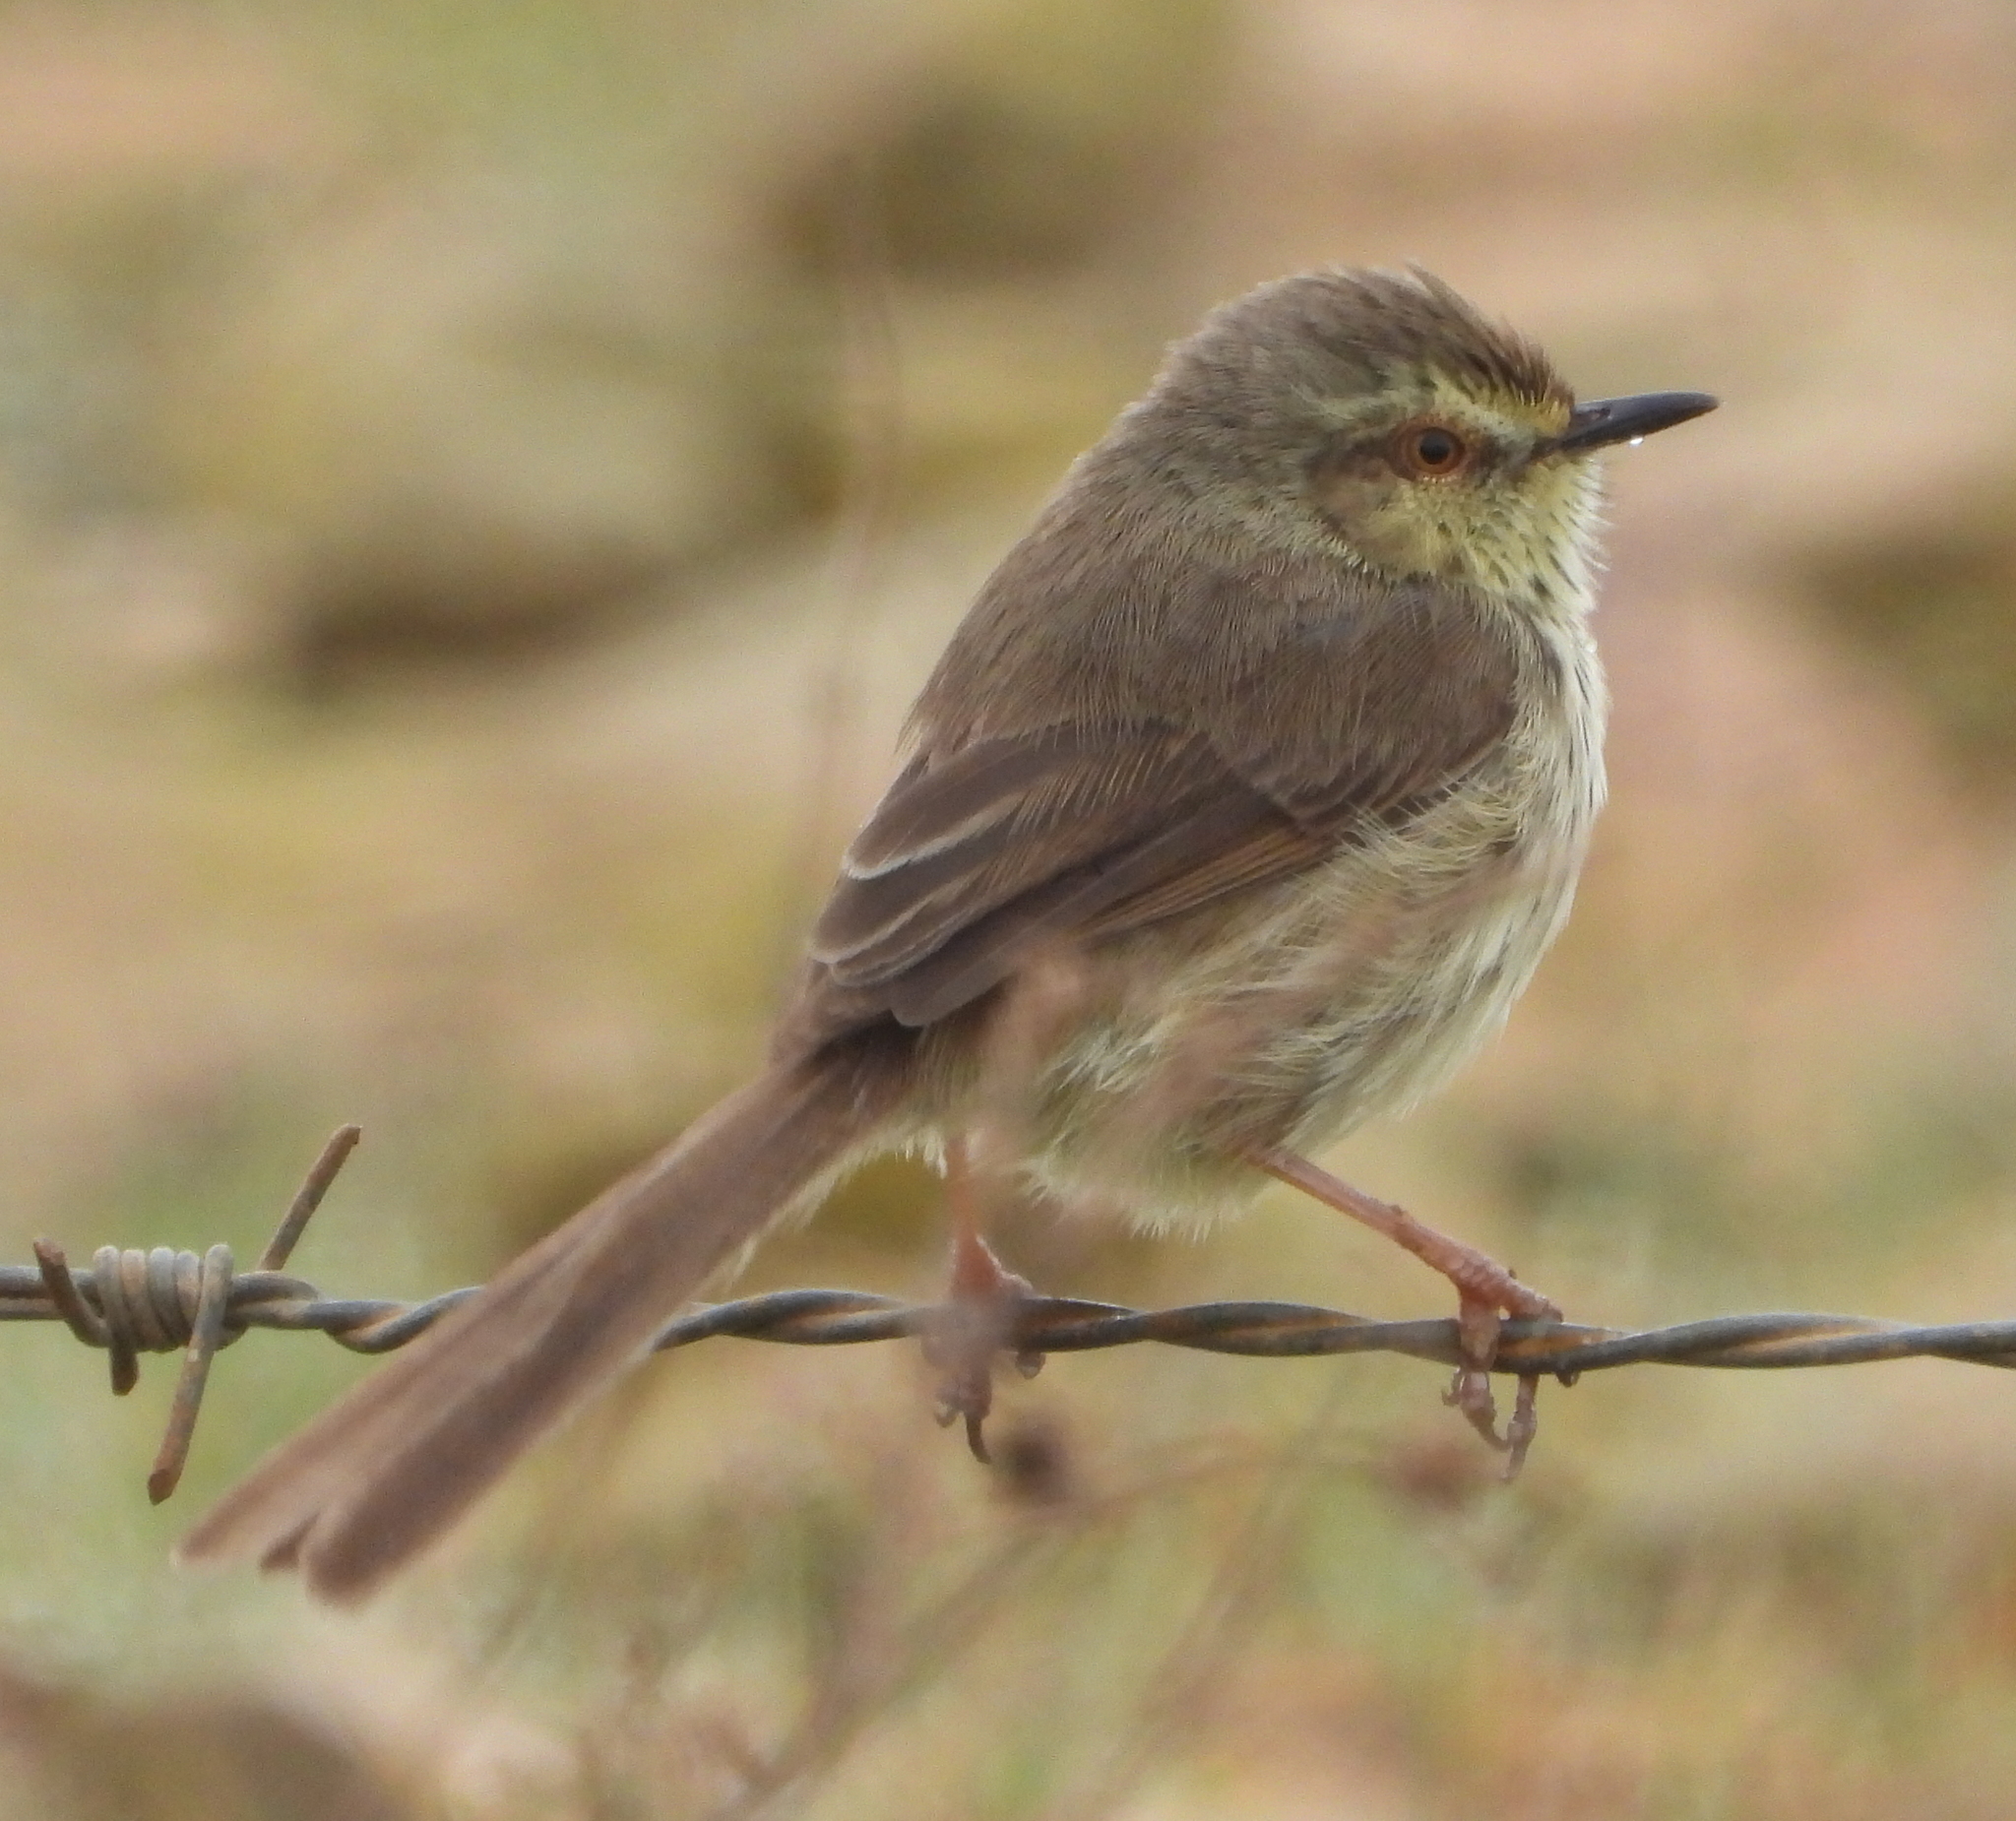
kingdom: Animalia
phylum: Chordata
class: Aves
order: Passeriformes
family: Cisticolidae
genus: Prinia
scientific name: Prinia maculosa
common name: Karoo prinia
